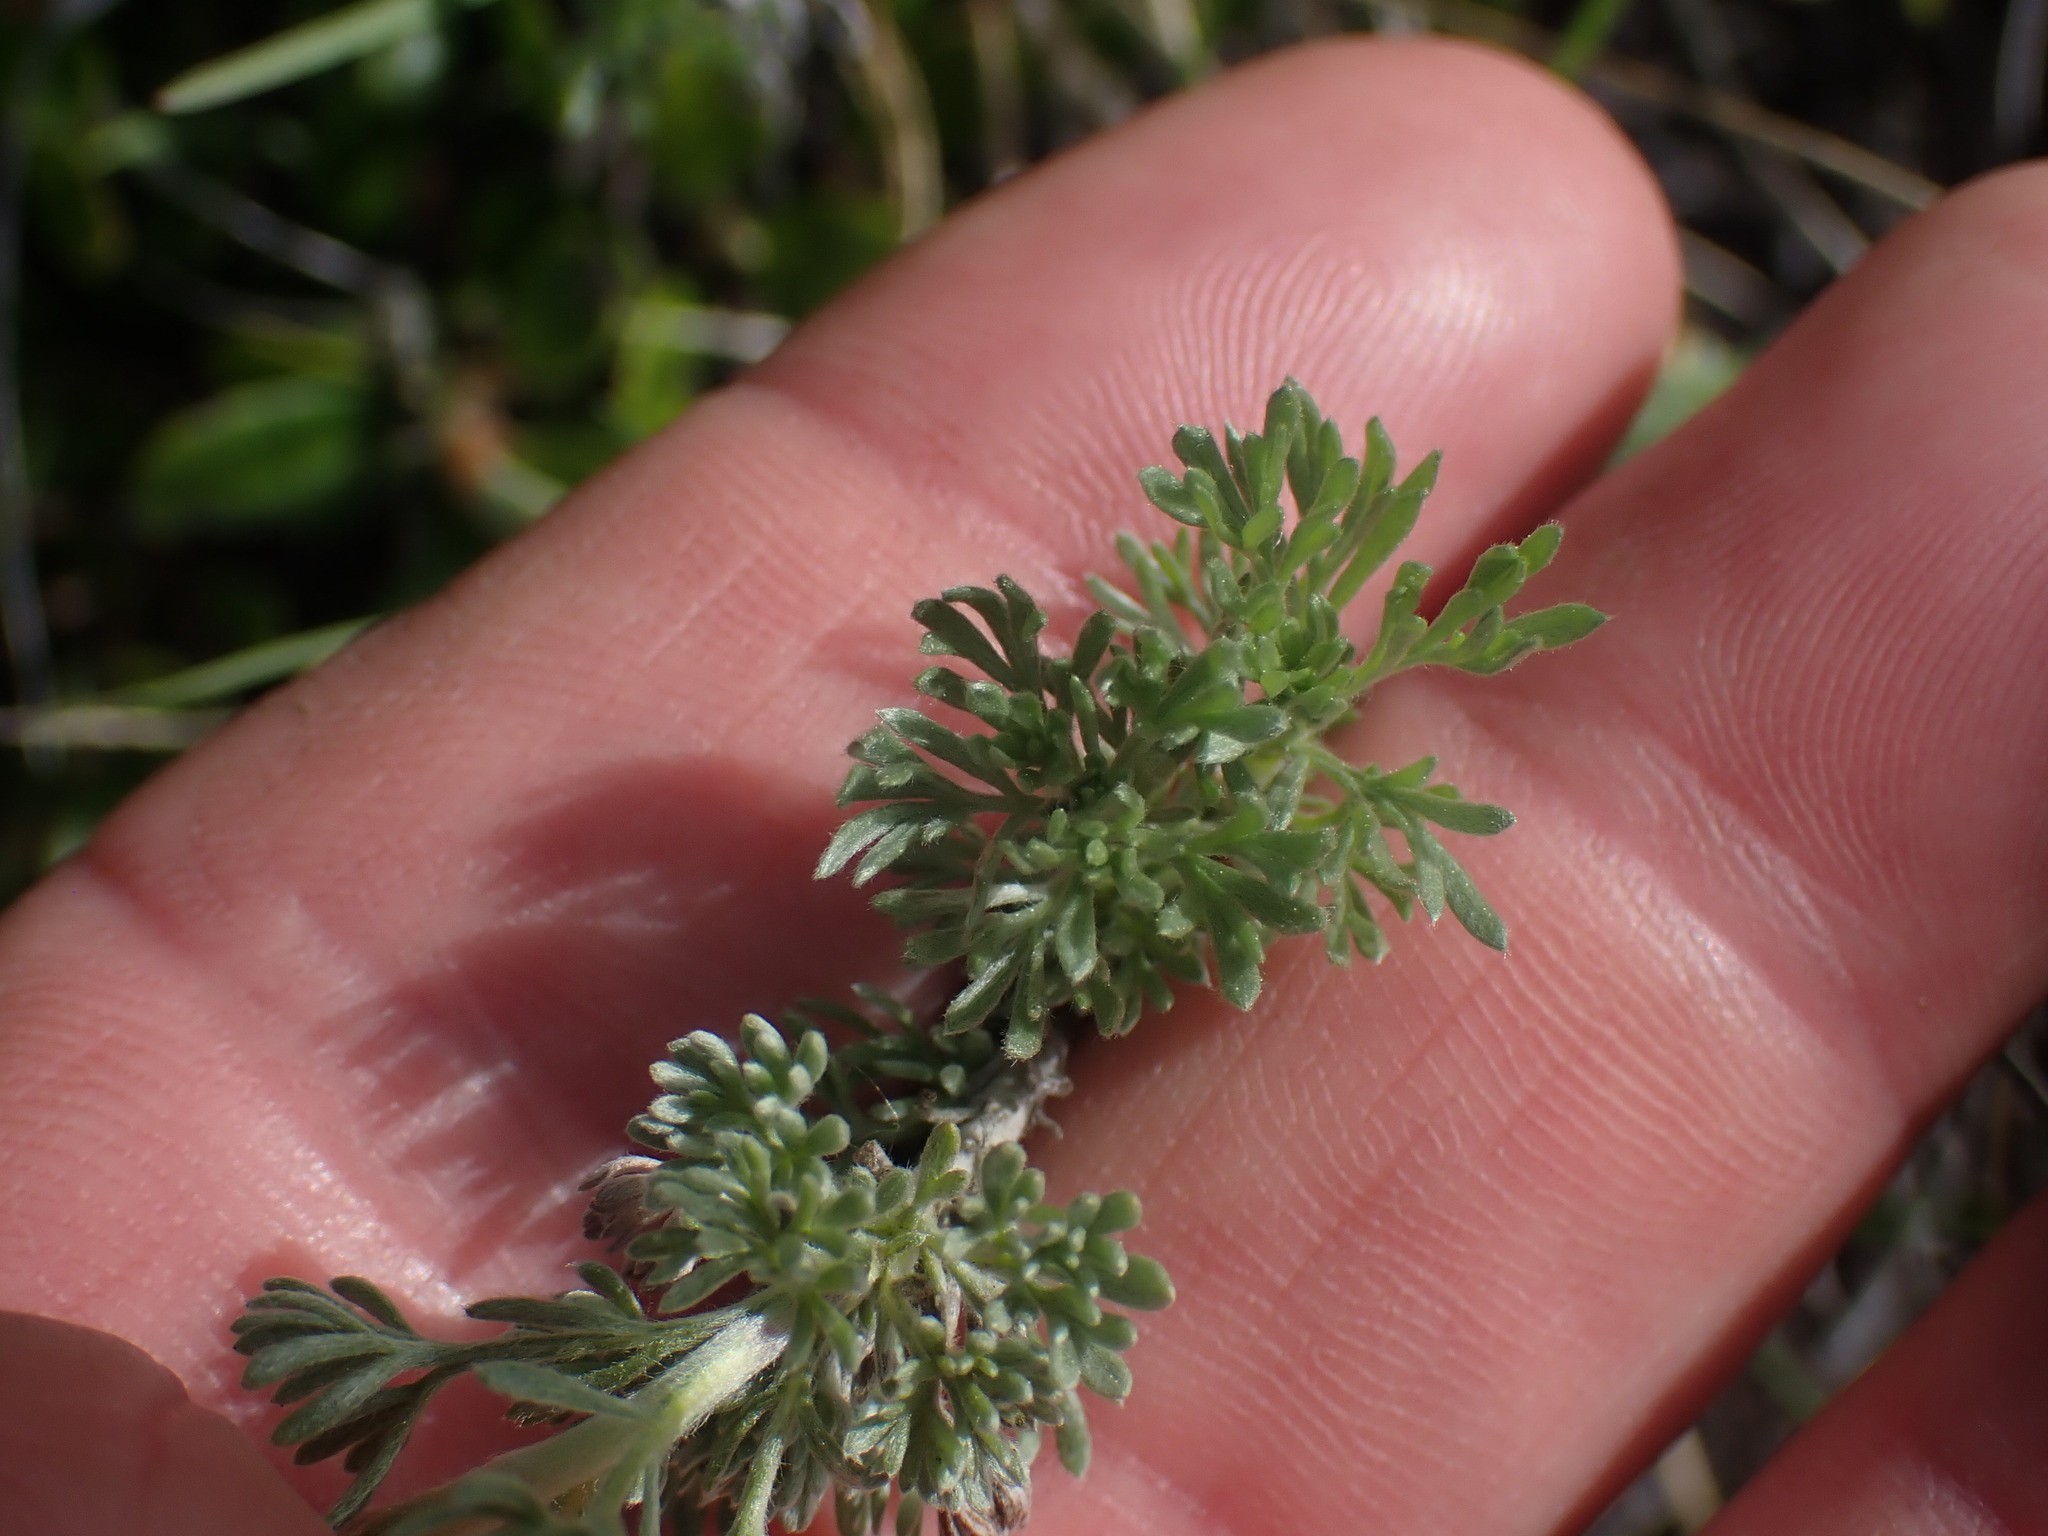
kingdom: Plantae
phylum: Tracheophyta
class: Magnoliopsida
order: Asterales
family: Asteraceae
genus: Artemisia
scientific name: Artemisia frigida
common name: Prairie sagewort
